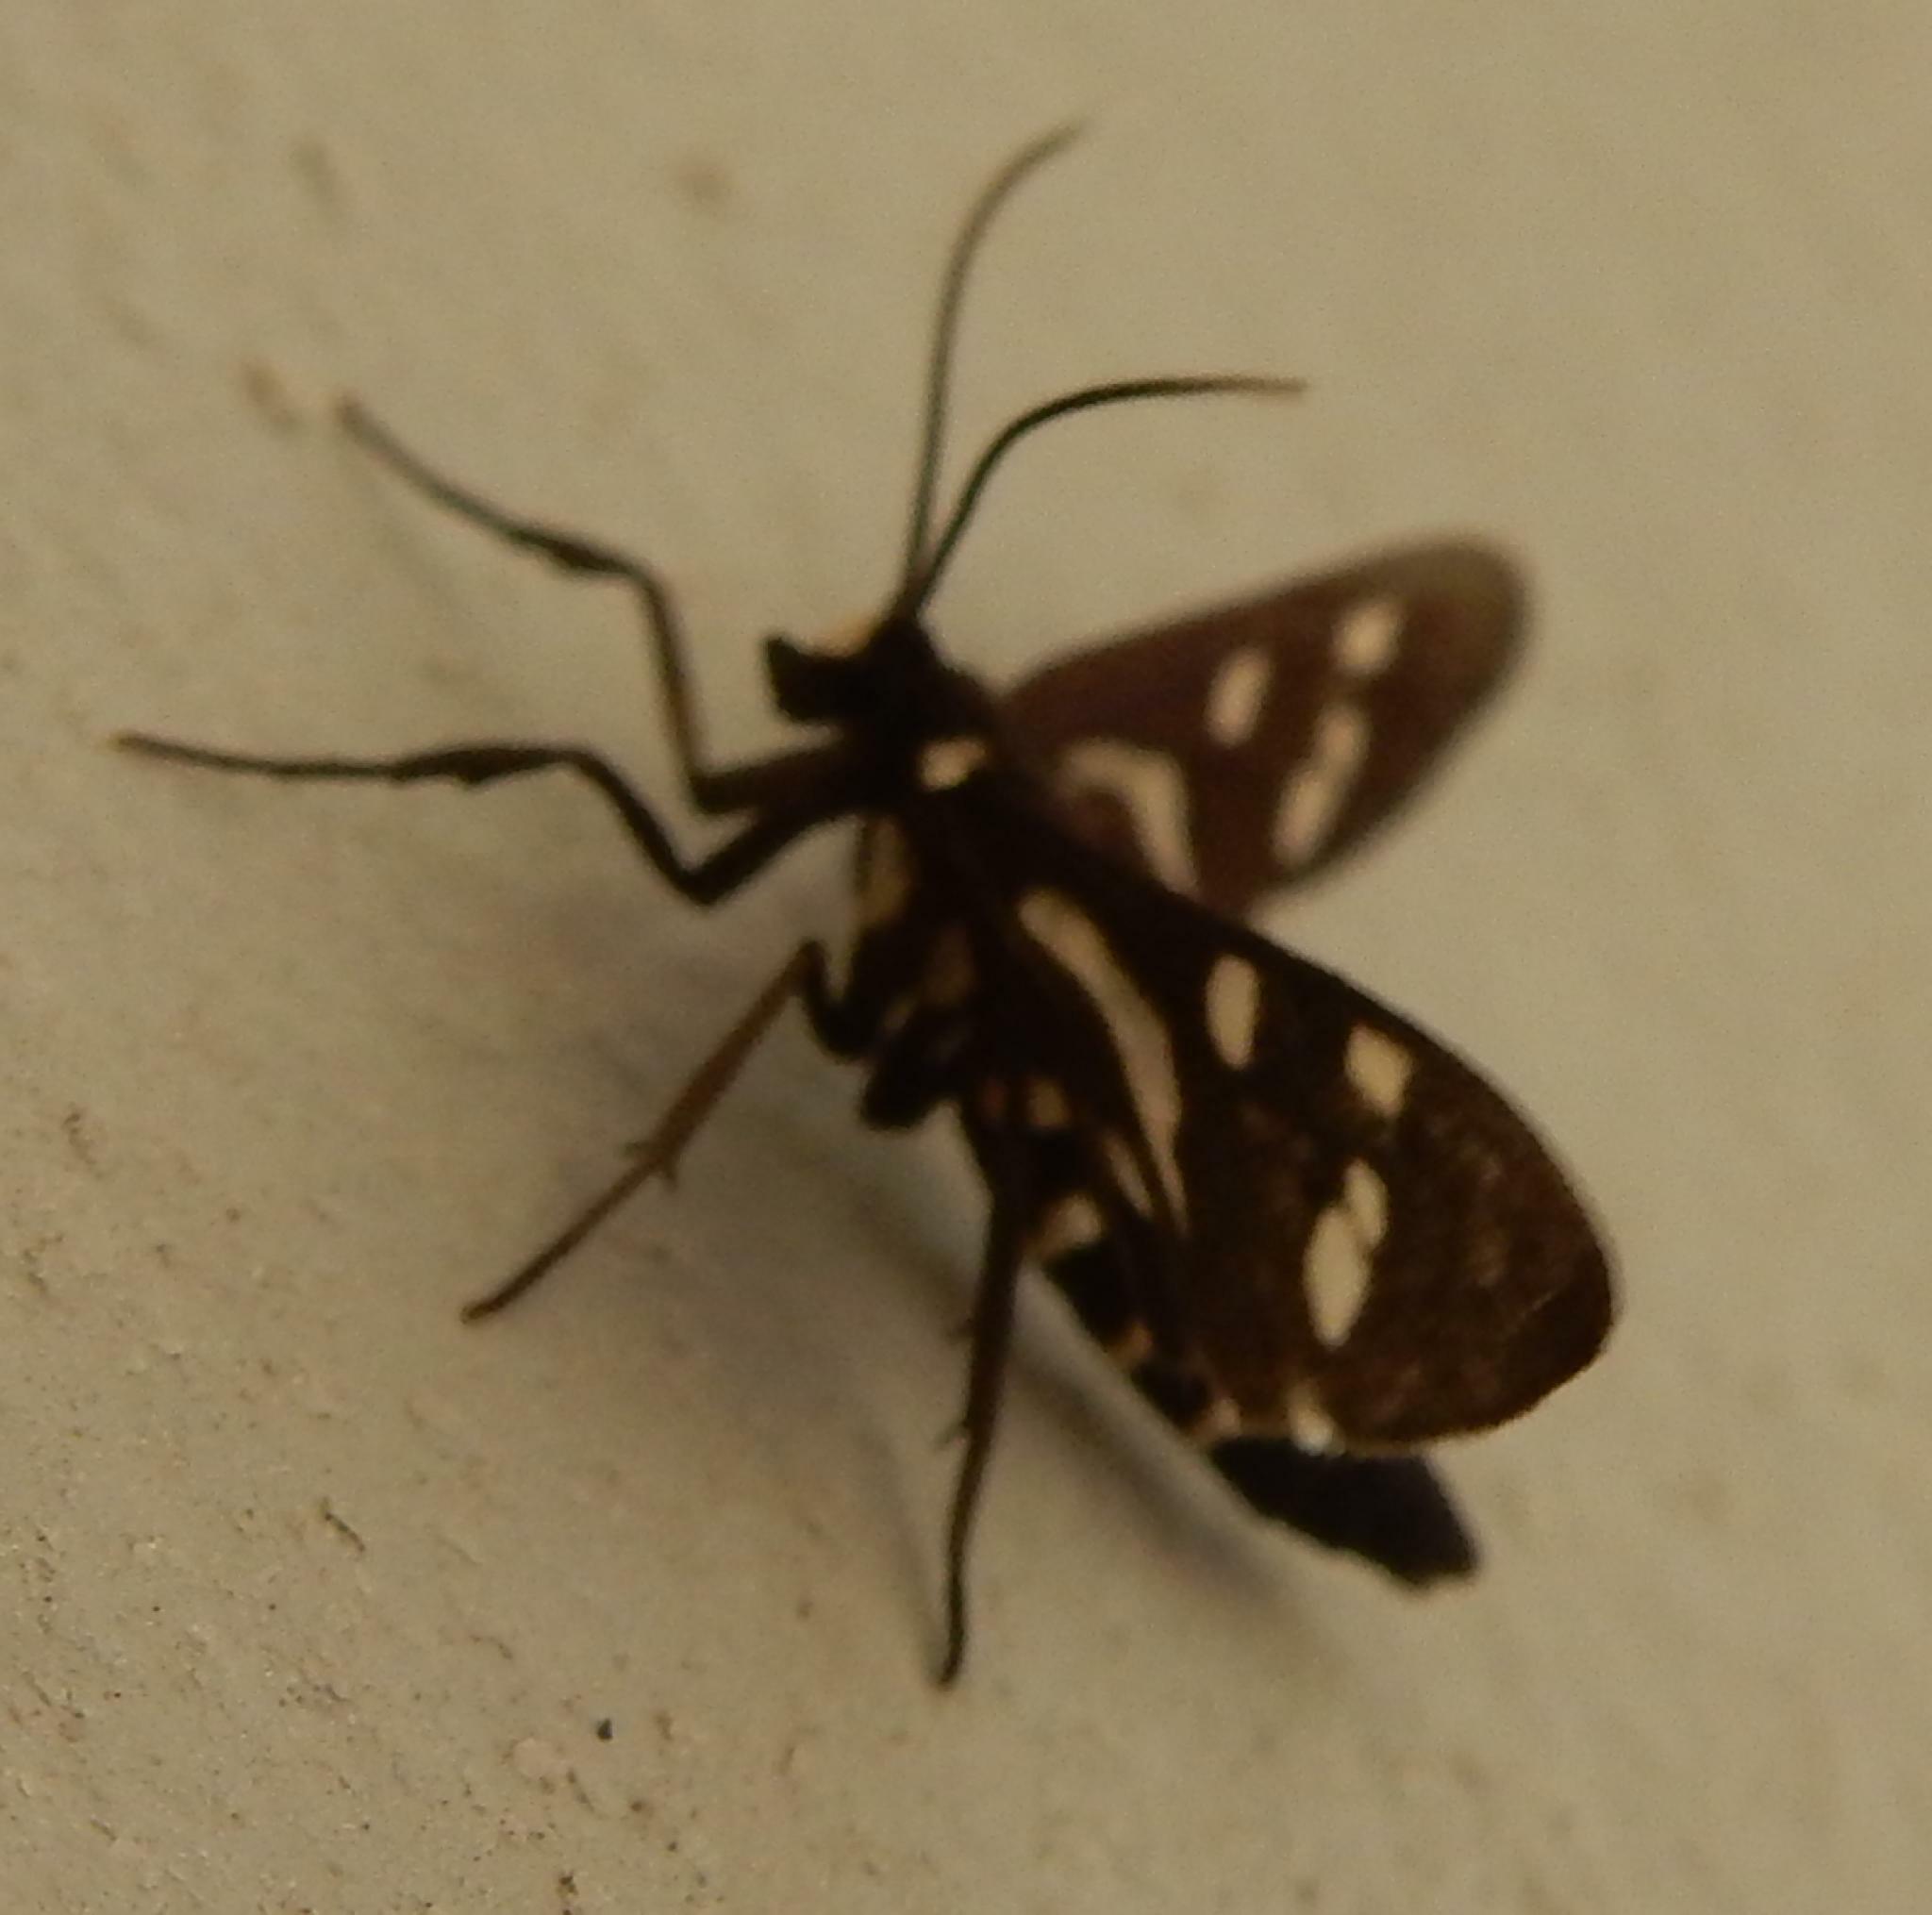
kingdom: Animalia
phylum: Arthropoda
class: Insecta
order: Lepidoptera
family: Erebidae
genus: Ceryx
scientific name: Ceryx toxotes
